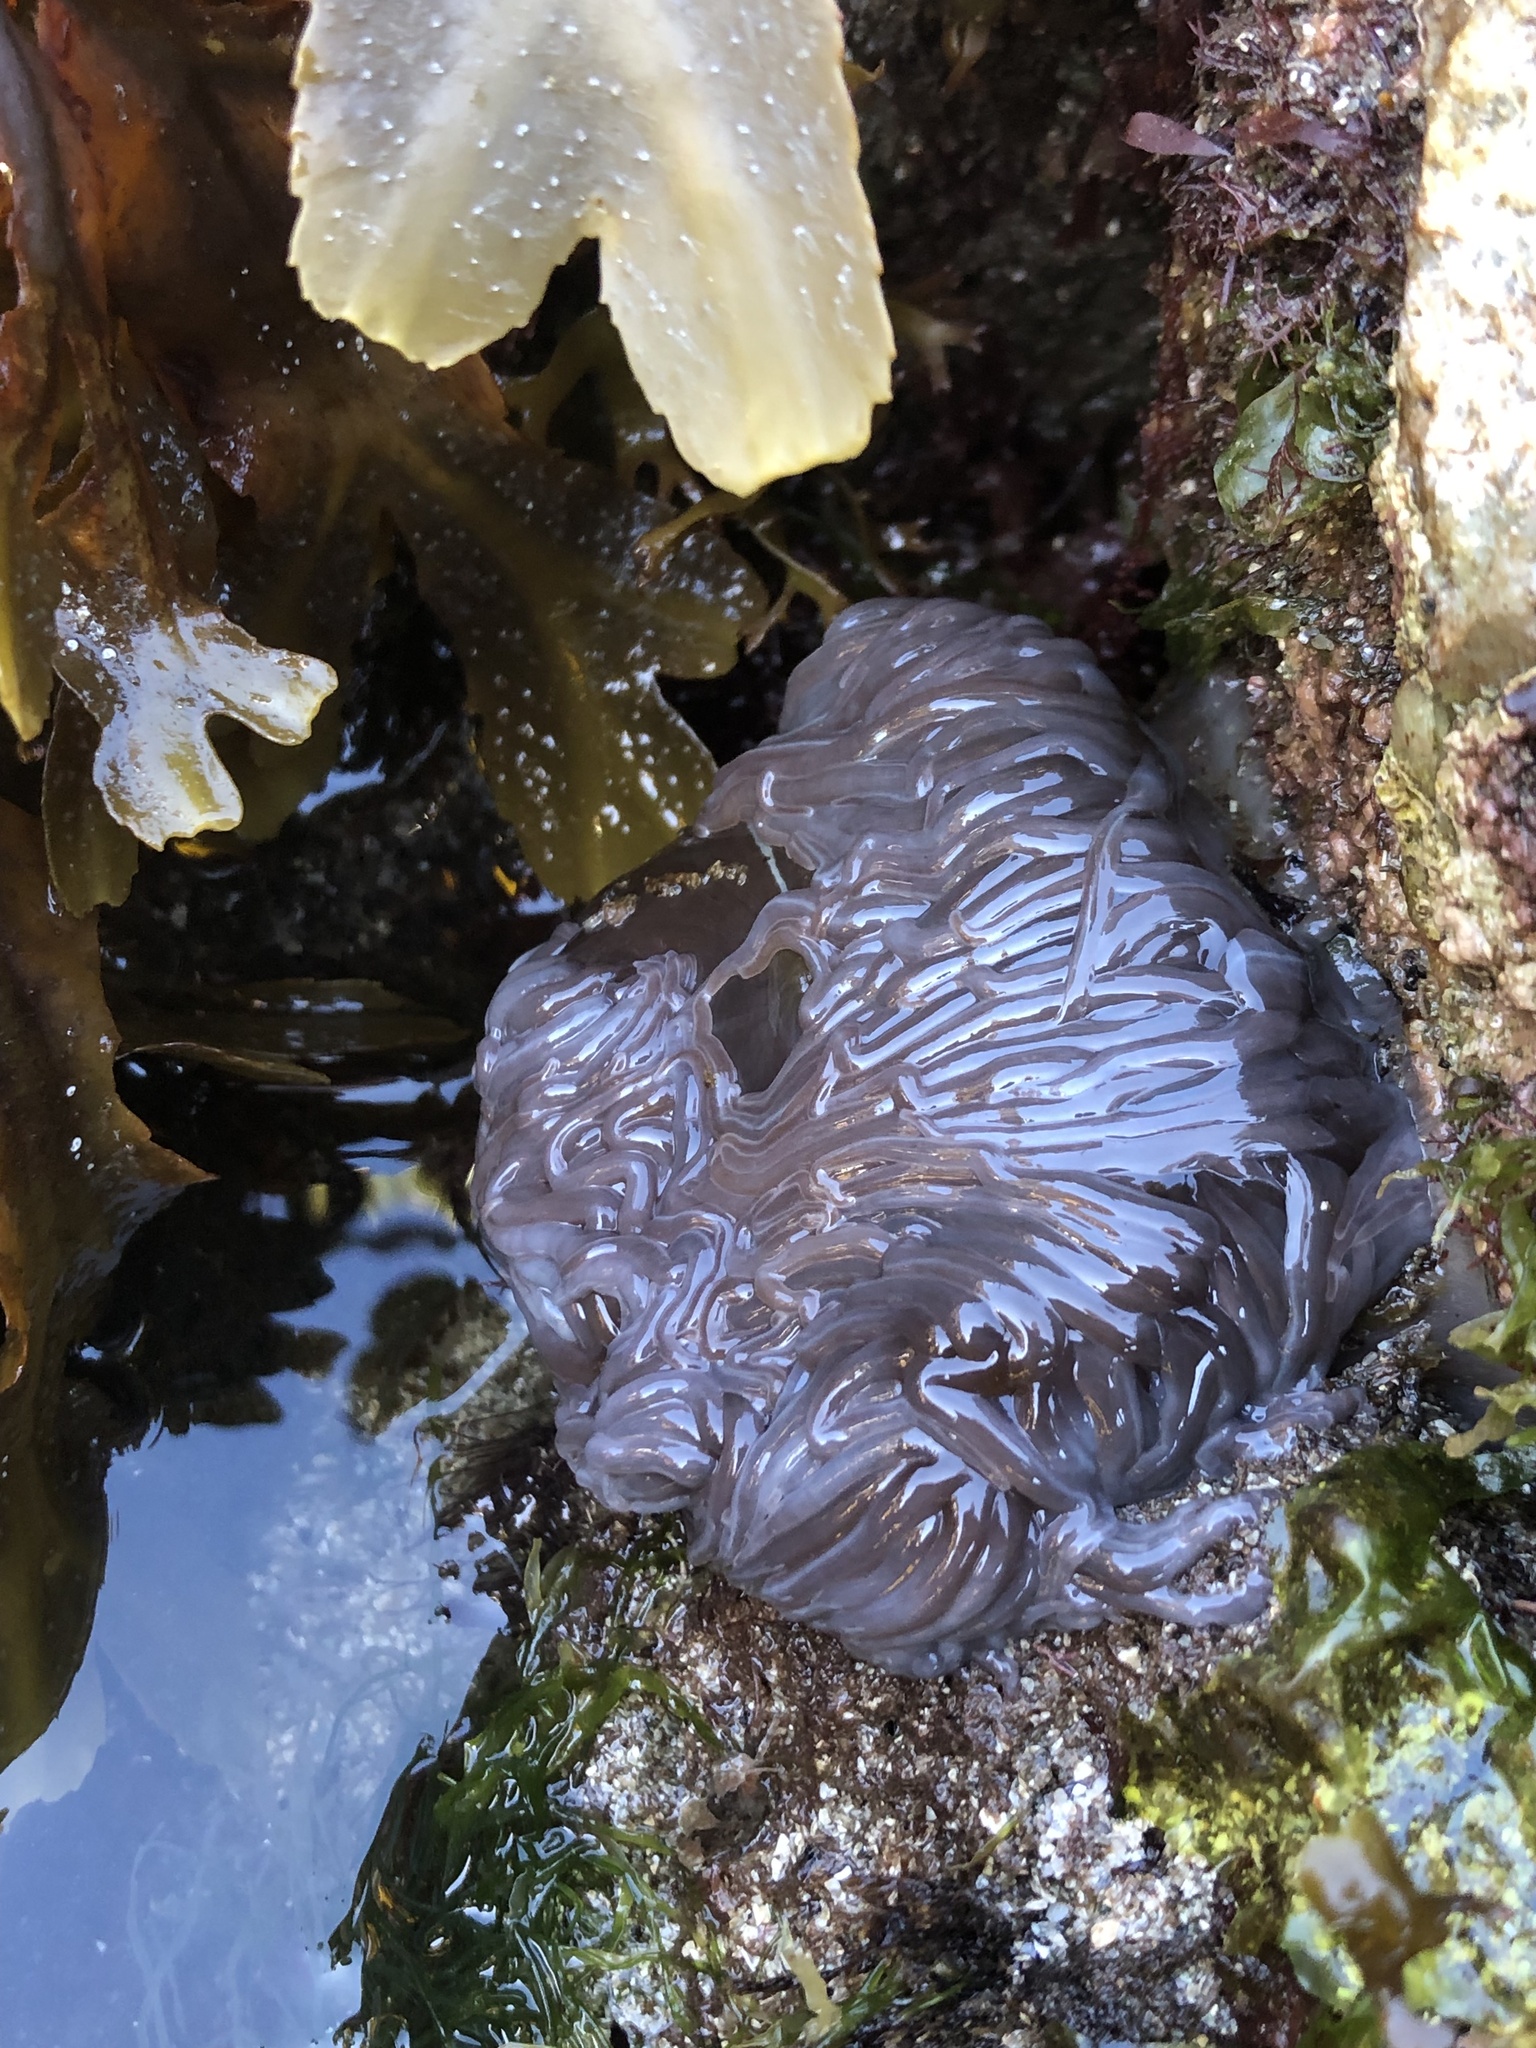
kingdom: Animalia
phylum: Cnidaria
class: Anthozoa
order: Actiniaria
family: Actiniidae
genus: Anemonia
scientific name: Anemonia viridis
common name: Snakelocks anemone
